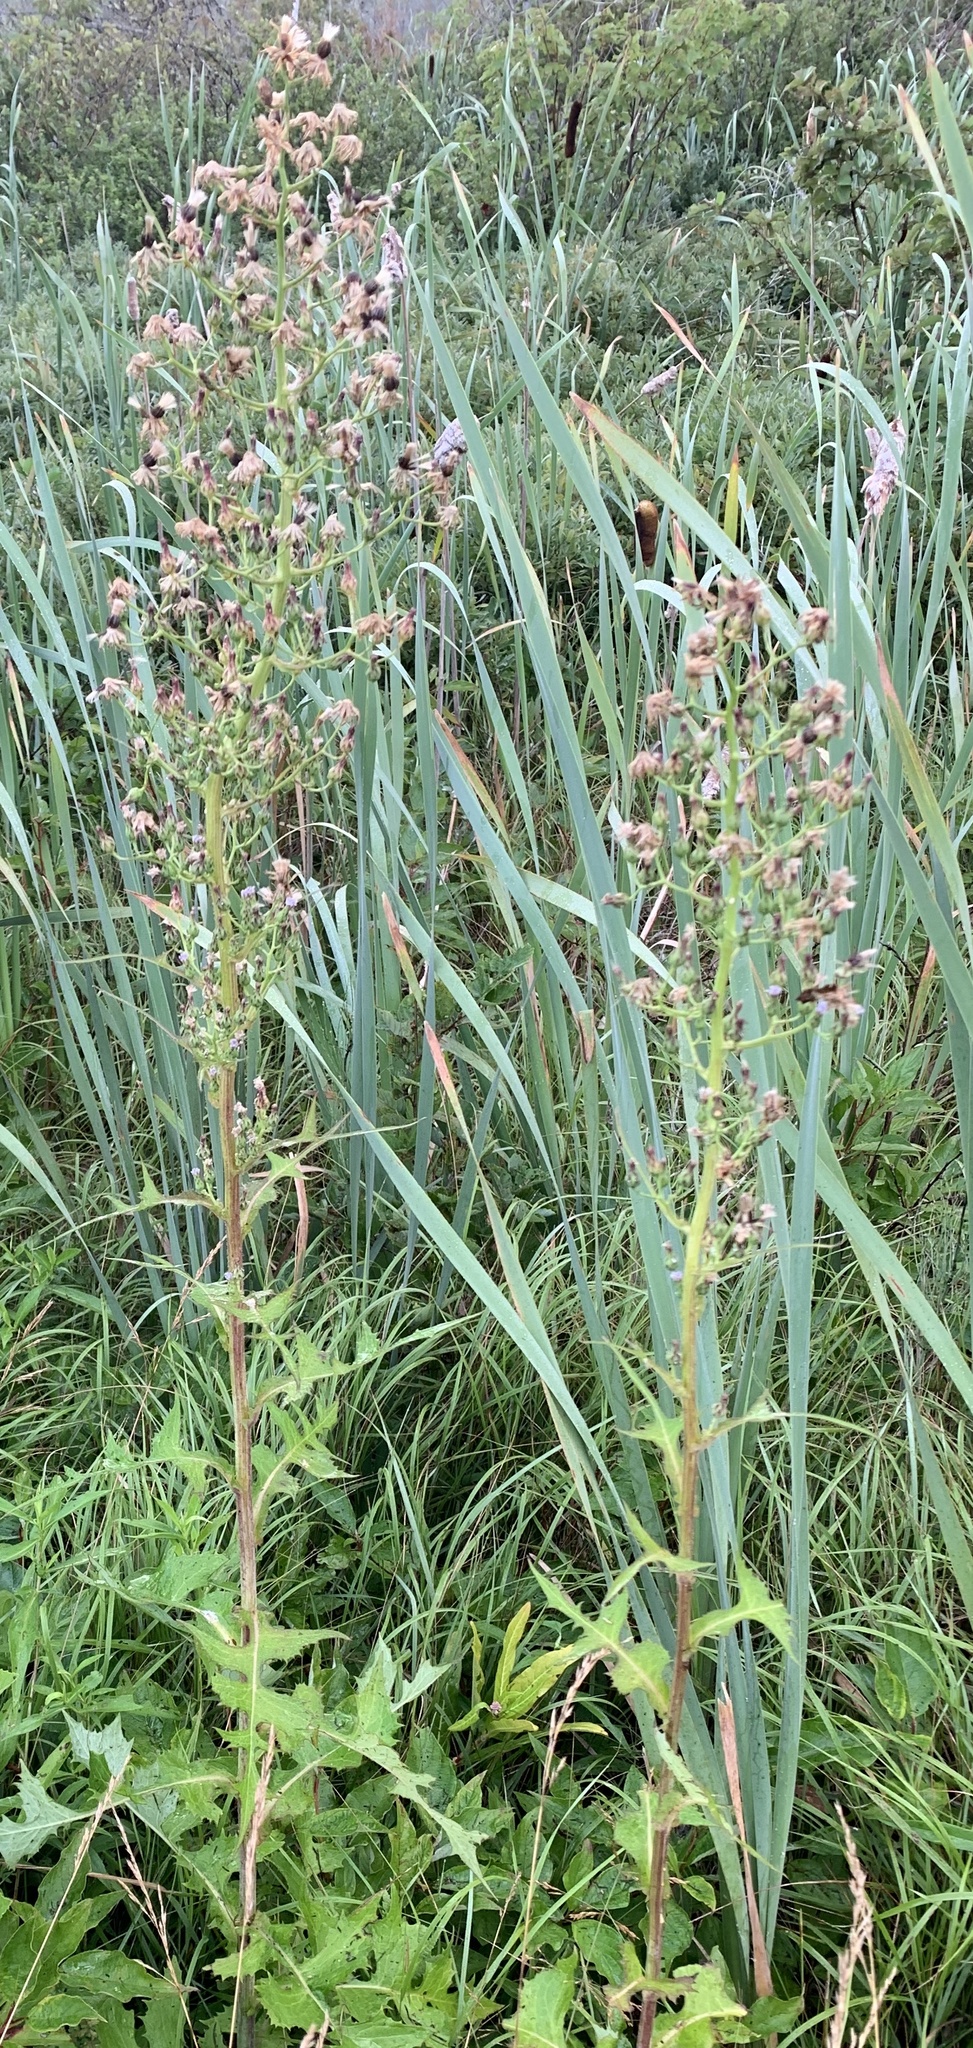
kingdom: Plantae
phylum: Tracheophyta
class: Magnoliopsida
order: Asterales
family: Asteraceae
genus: Lactuca
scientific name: Lactuca biennis
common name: Blue wood lettuce
